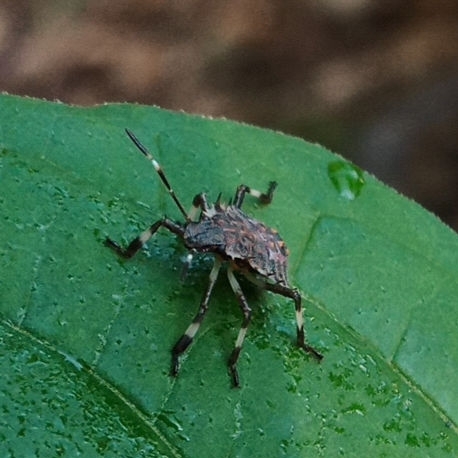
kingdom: Animalia
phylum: Arthropoda
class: Insecta
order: Hemiptera
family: Pentatomidae
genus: Halyomorpha
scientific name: Halyomorpha halys
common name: Brown marmorated stink bug
